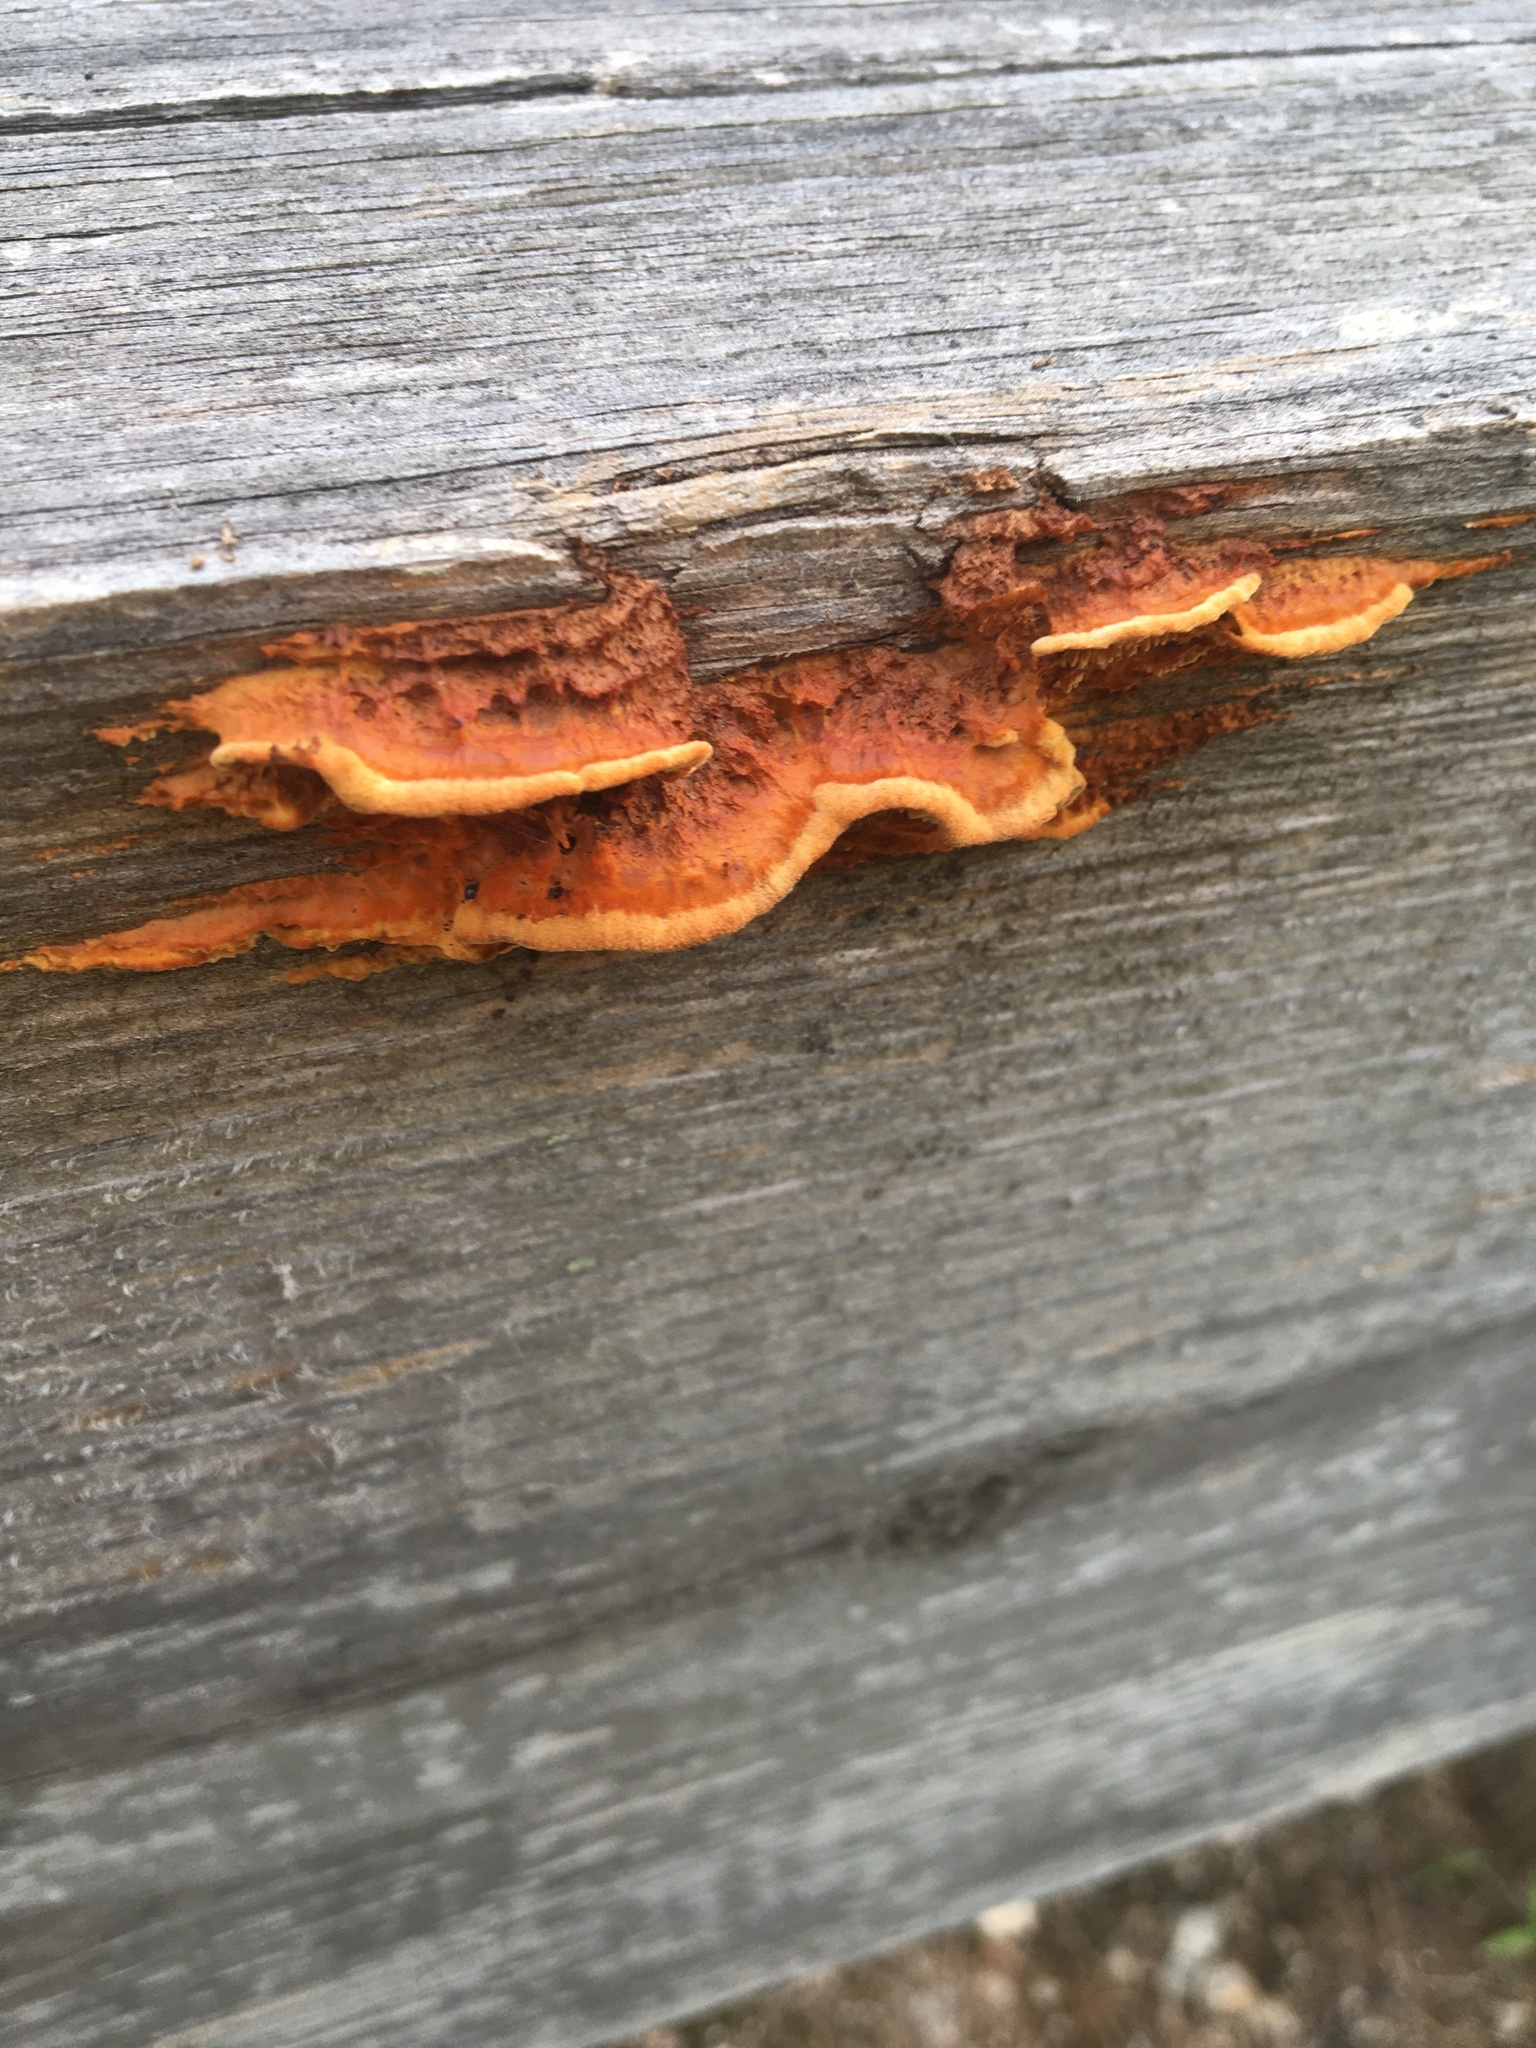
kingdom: Fungi
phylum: Basidiomycota
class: Agaricomycetes
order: Gloeophyllales
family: Gloeophyllaceae
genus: Gloeophyllum
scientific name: Gloeophyllum sepiarium
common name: Conifer mazegill
